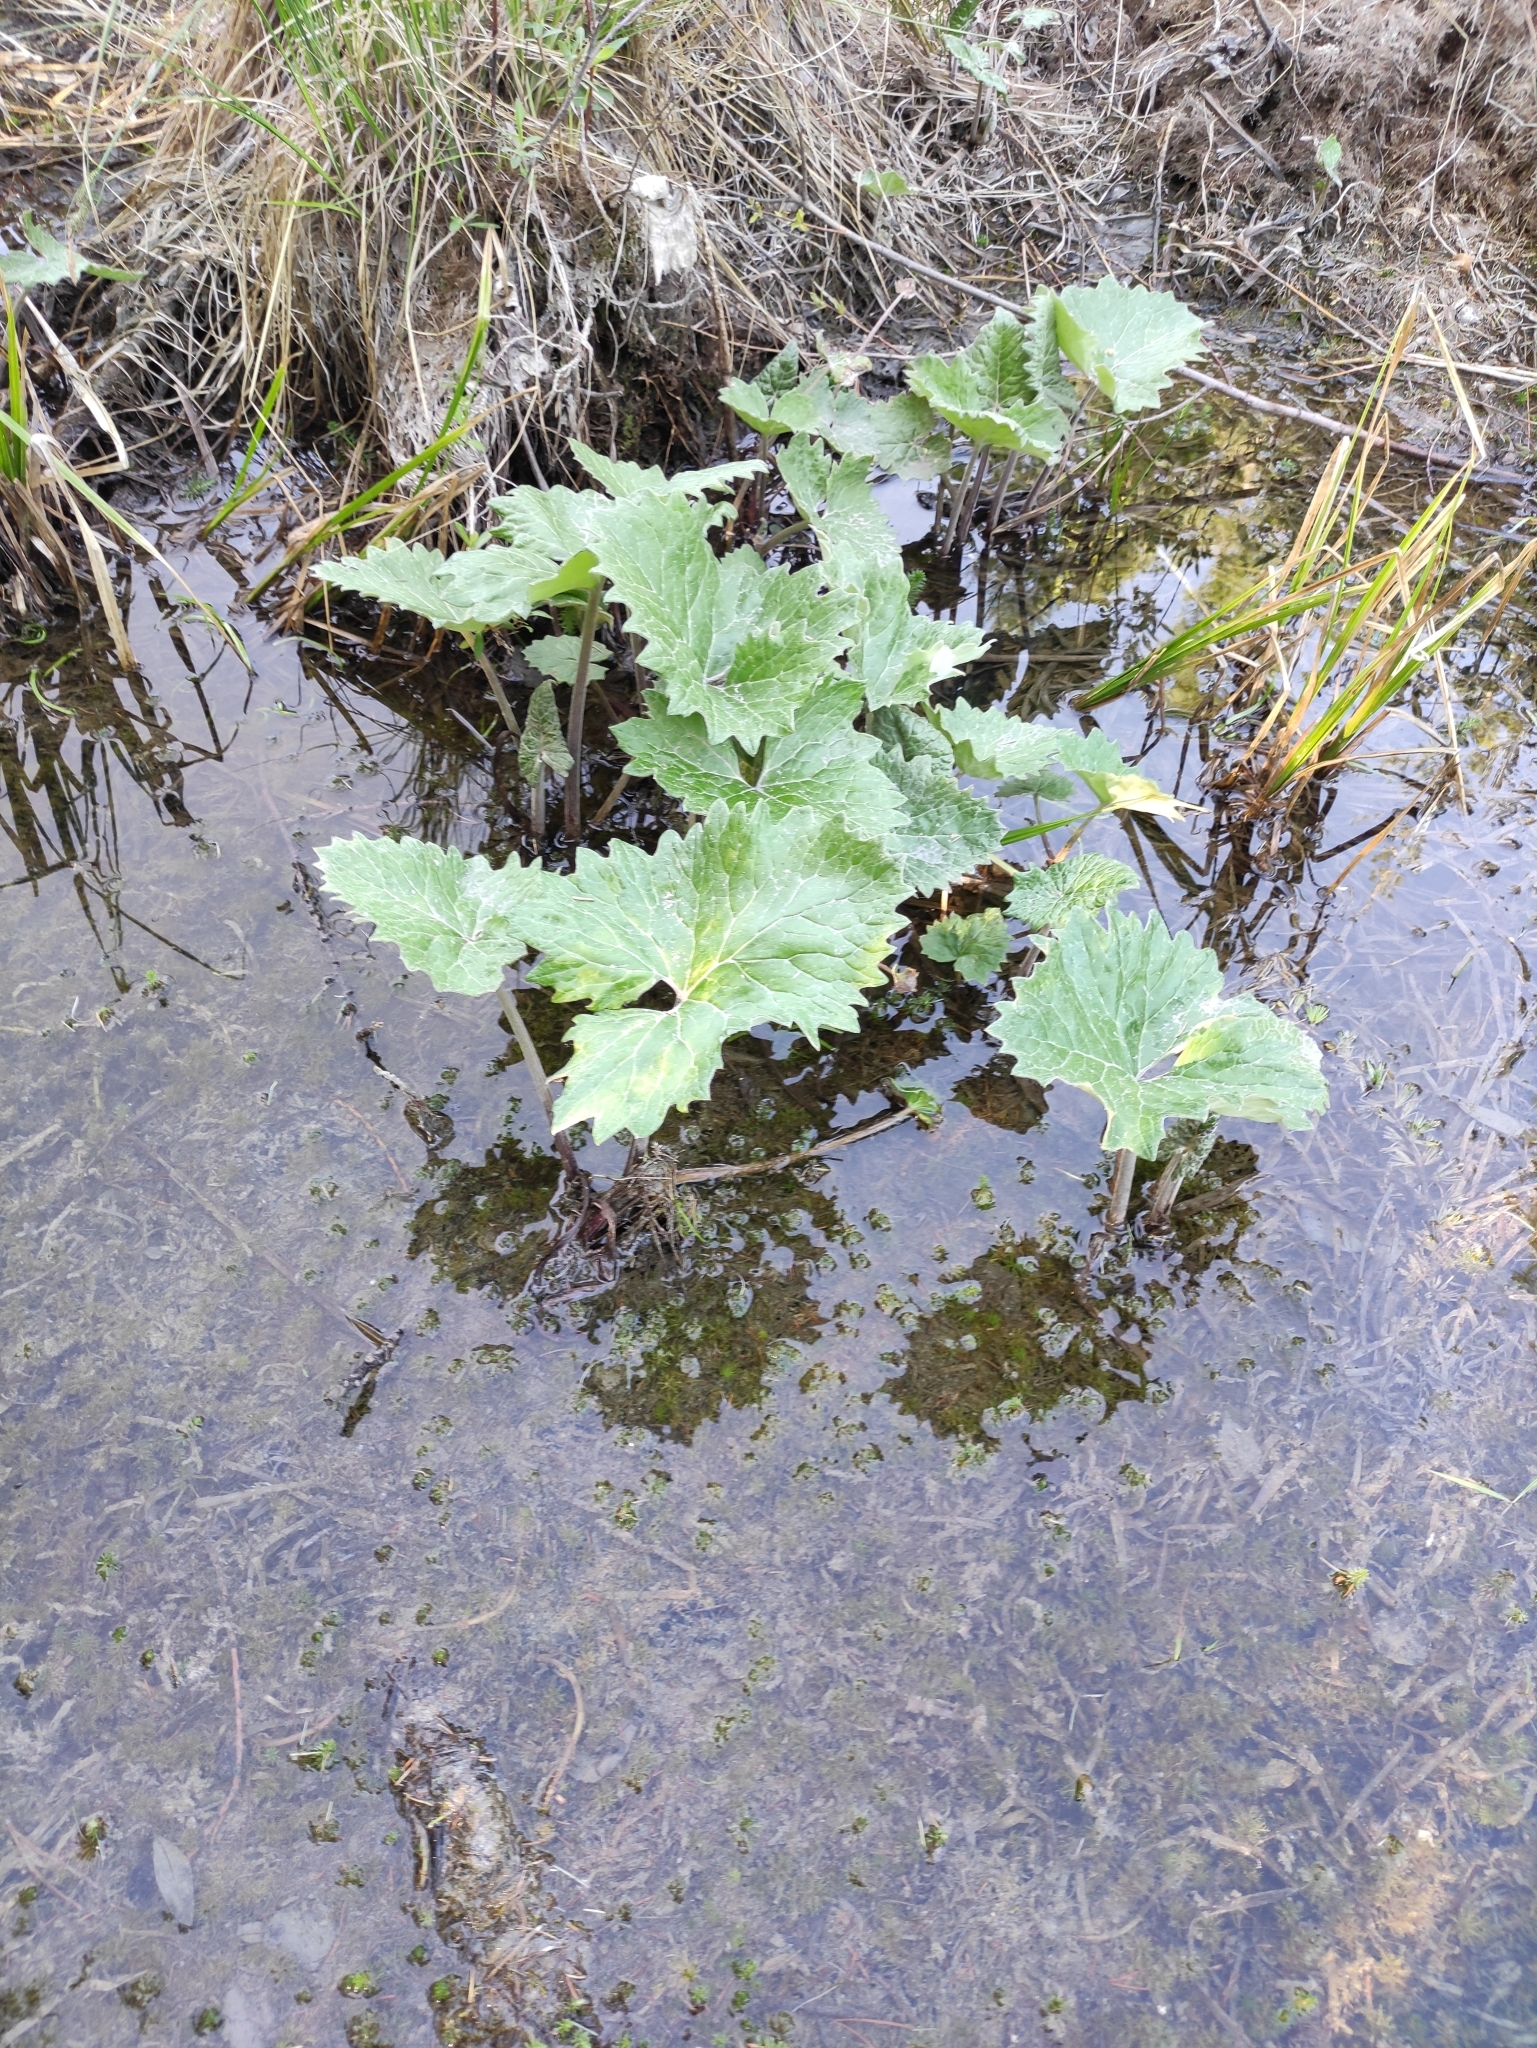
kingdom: Plantae
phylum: Tracheophyta
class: Magnoliopsida
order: Asterales
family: Asteraceae
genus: Petasites
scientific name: Petasites frigidus
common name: Arctic butterbur
